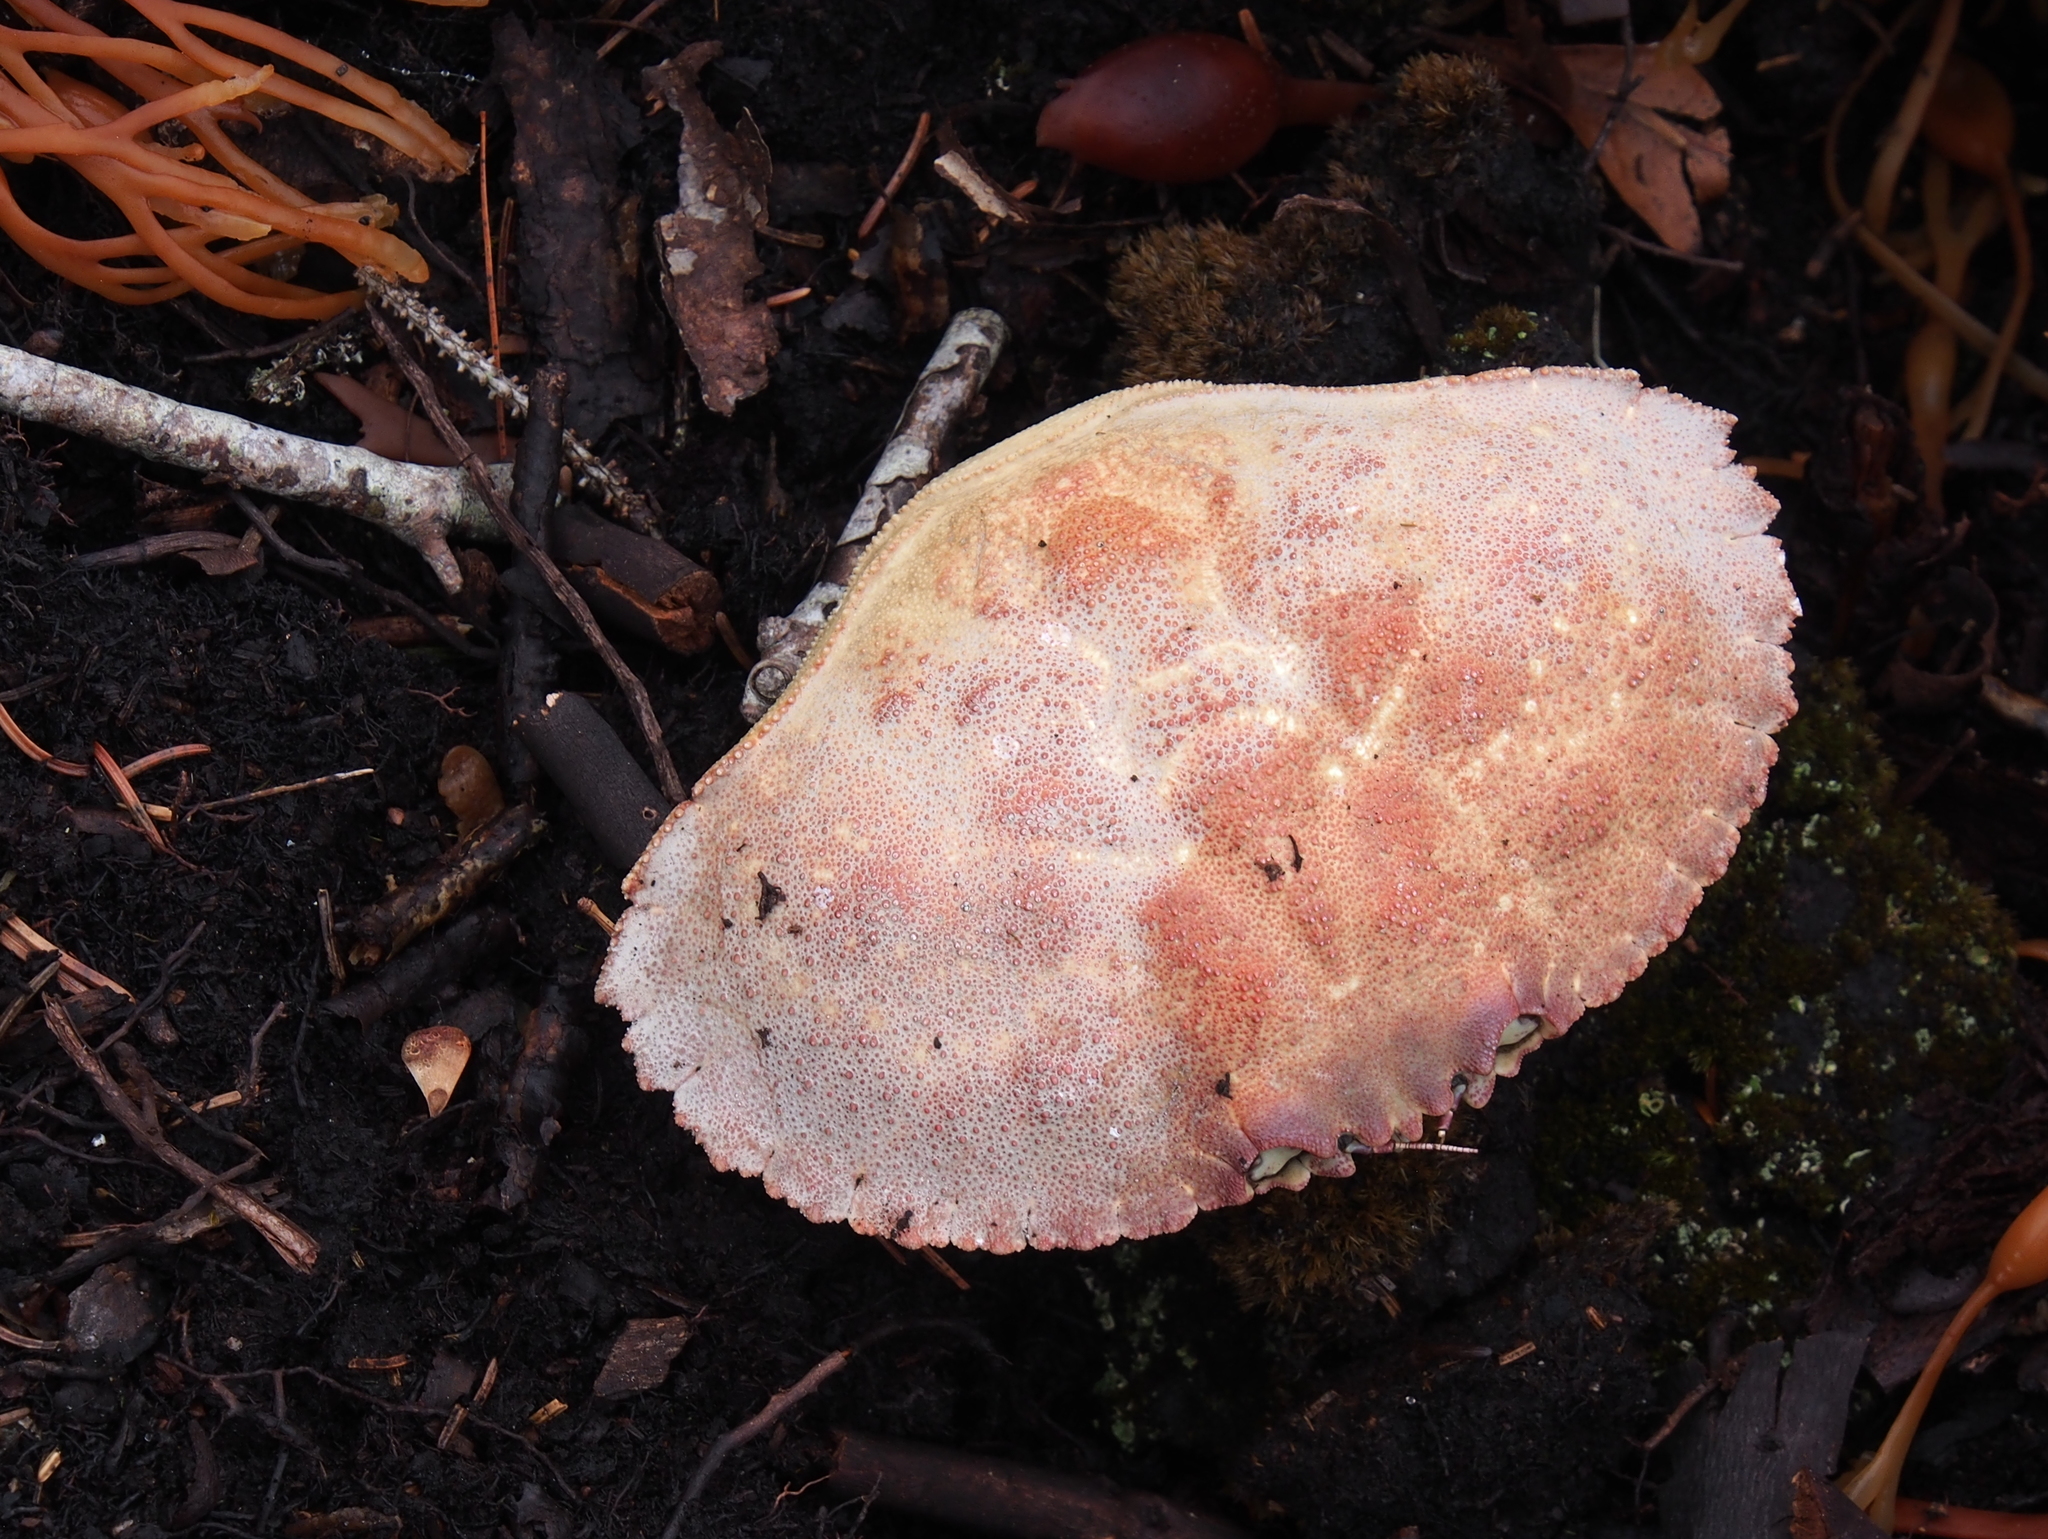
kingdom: Animalia
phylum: Arthropoda
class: Malacostraca
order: Decapoda
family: Cancridae
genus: Cancer
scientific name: Cancer borealis
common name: Jonah crab
